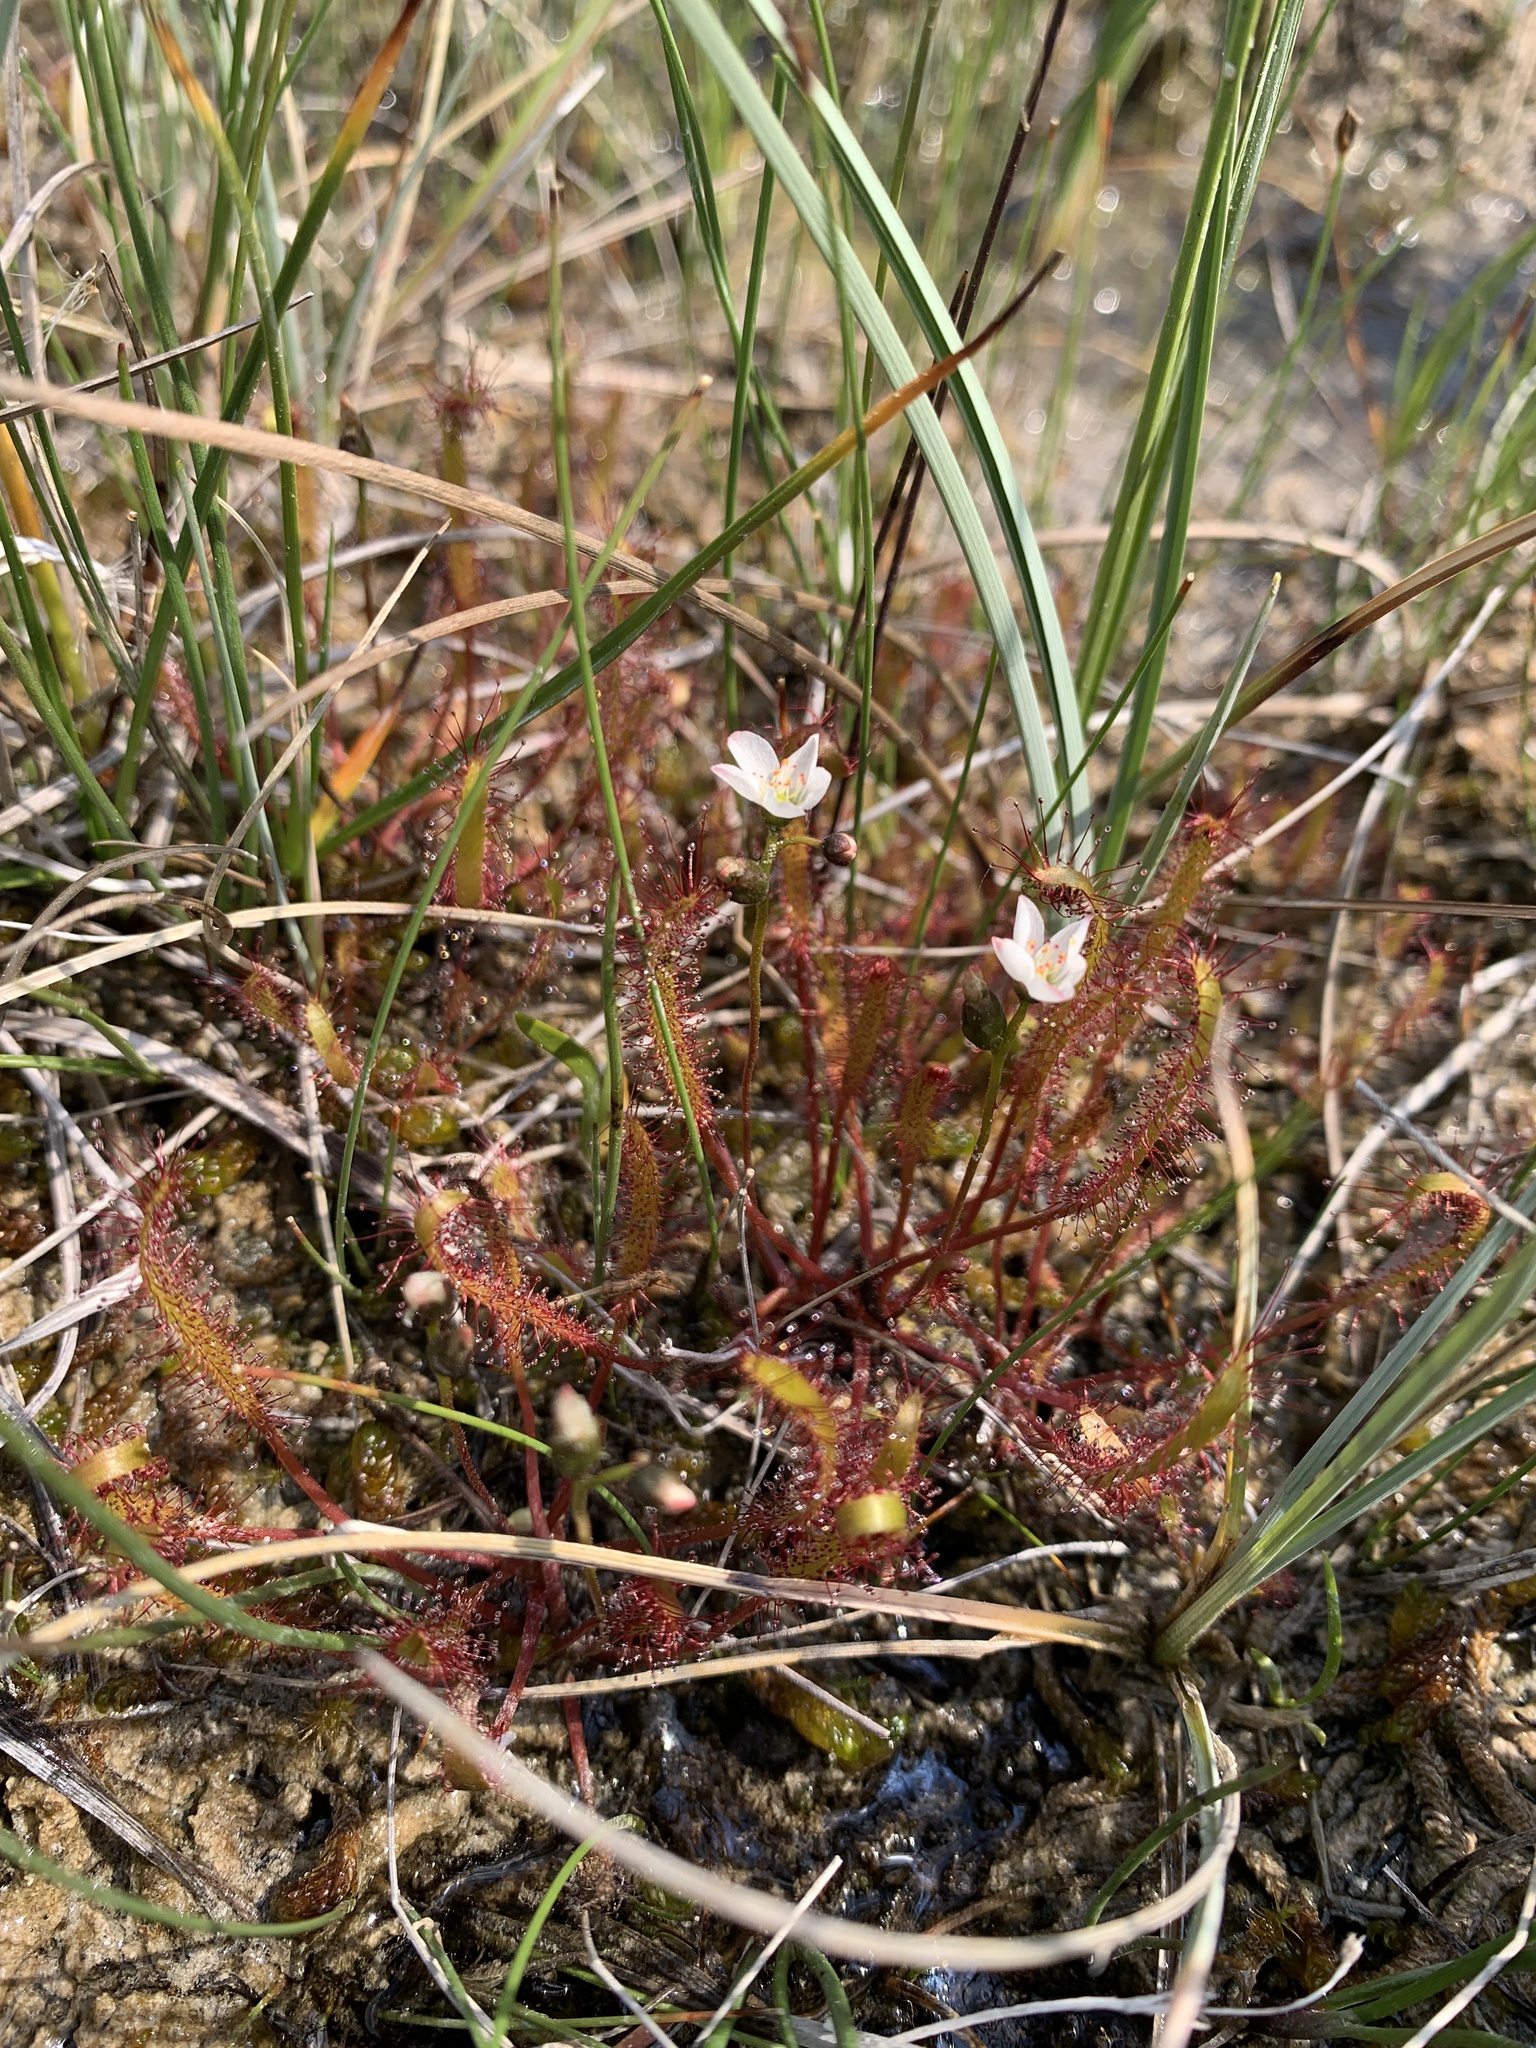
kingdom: Plantae
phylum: Tracheophyta
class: Magnoliopsida
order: Caryophyllales
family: Droseraceae
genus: Drosera
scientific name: Drosera linearis
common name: Linear-leaved sundew
